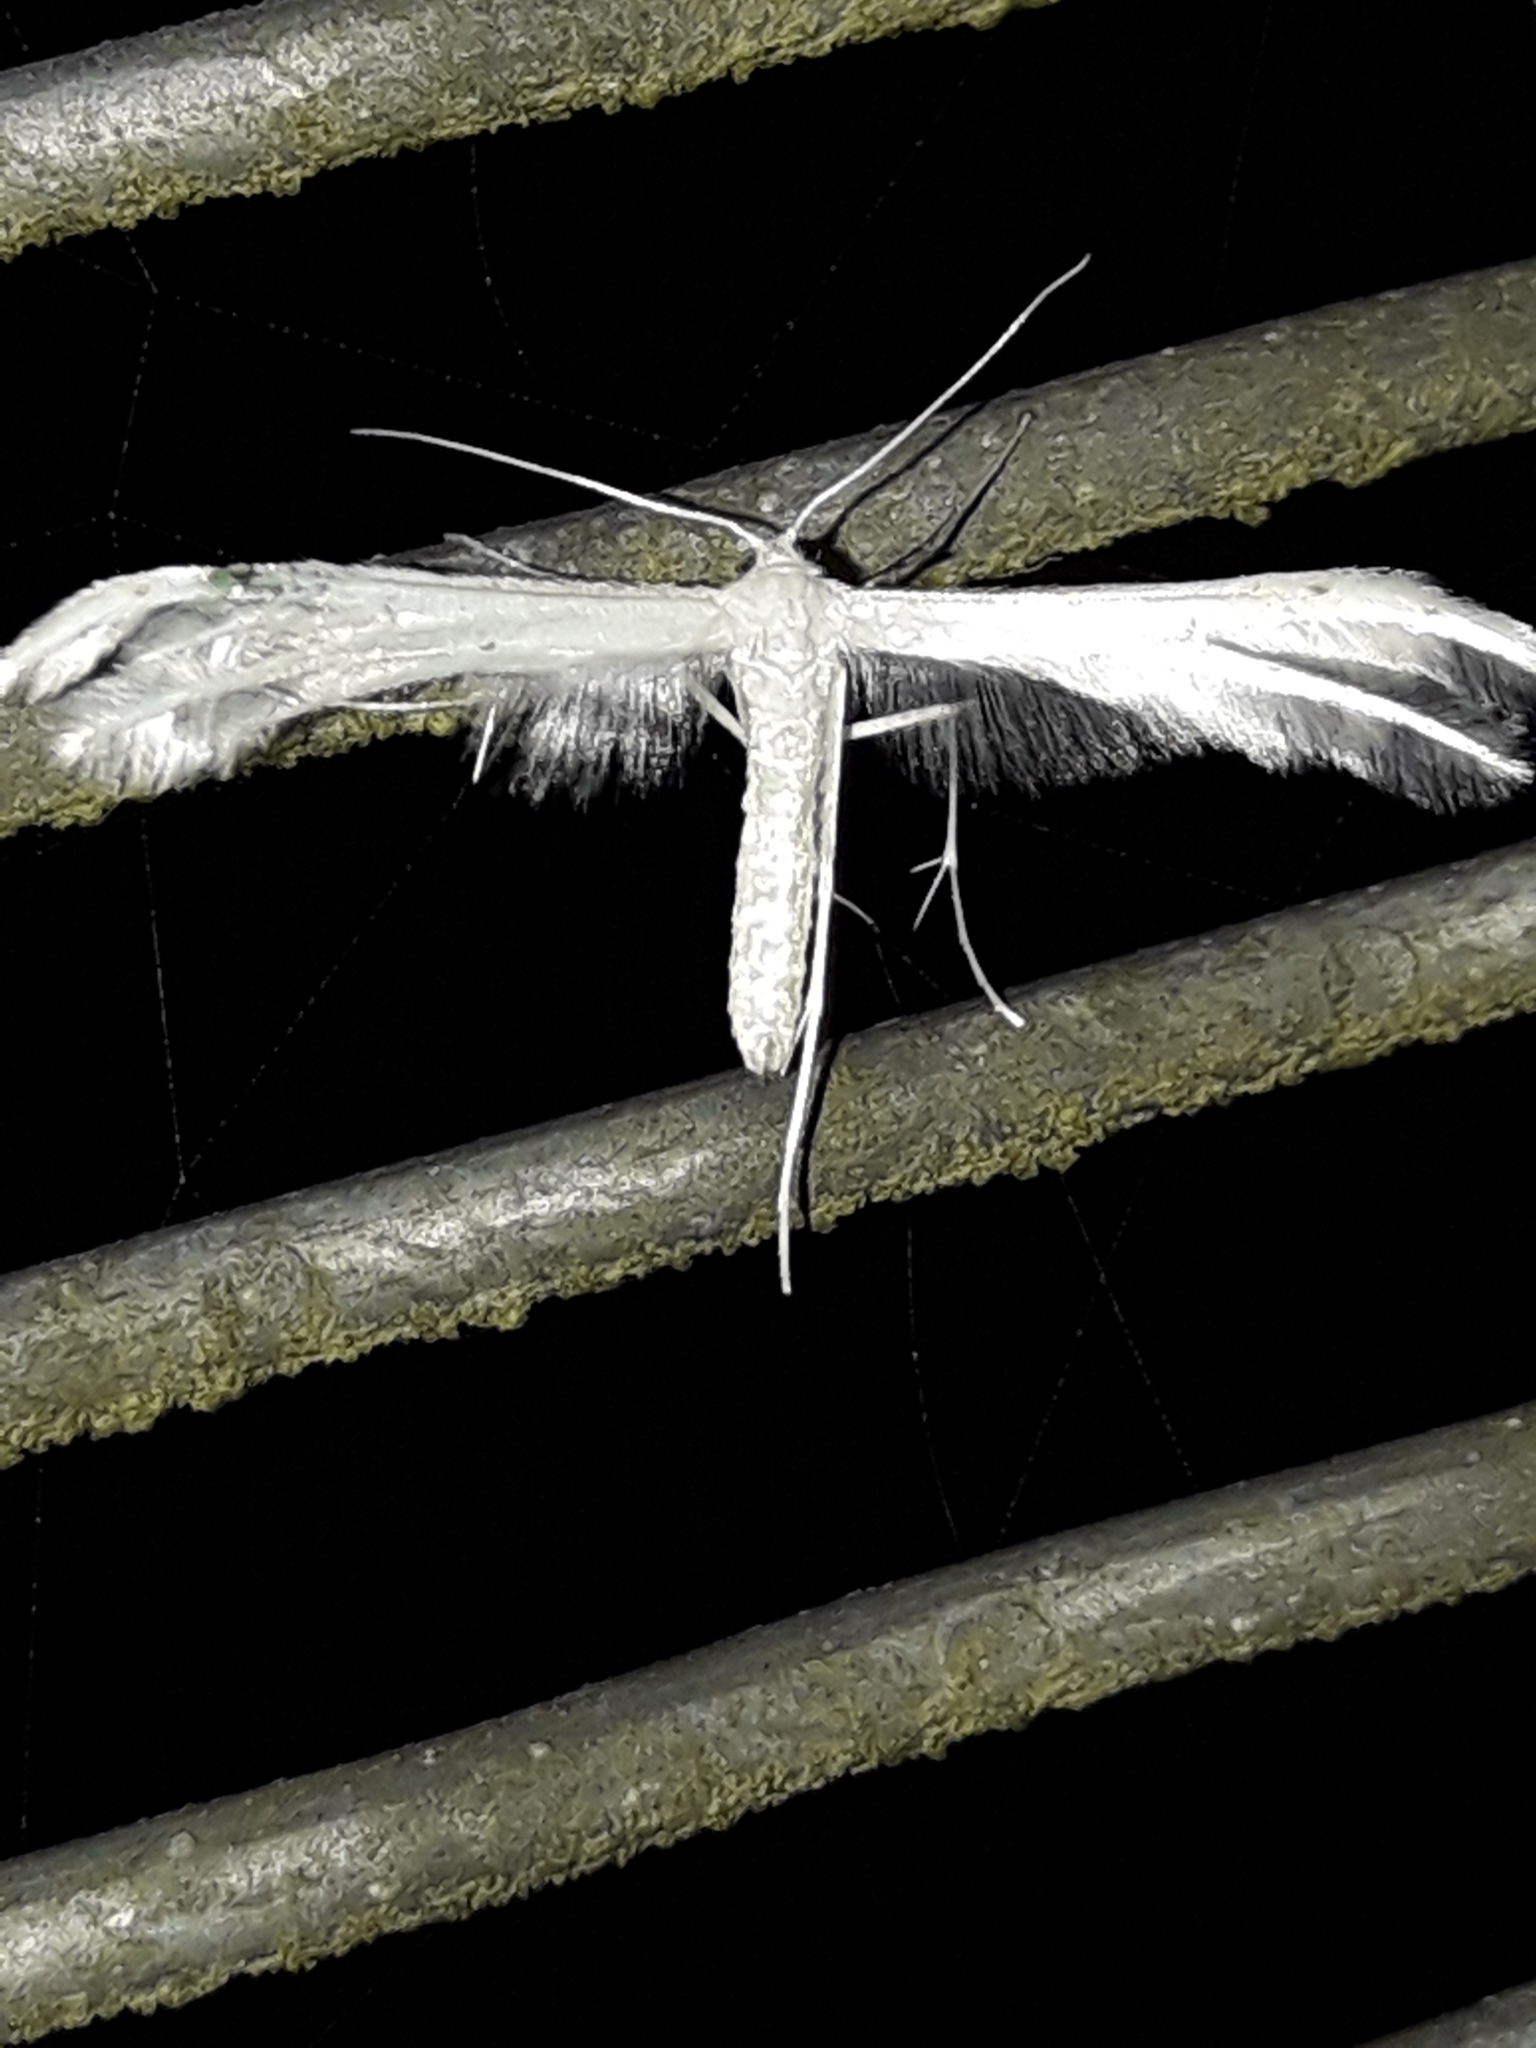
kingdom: Animalia
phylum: Arthropoda
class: Insecta
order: Lepidoptera
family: Pterophoridae
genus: Pterophorus
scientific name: Pterophorus monospilalis
